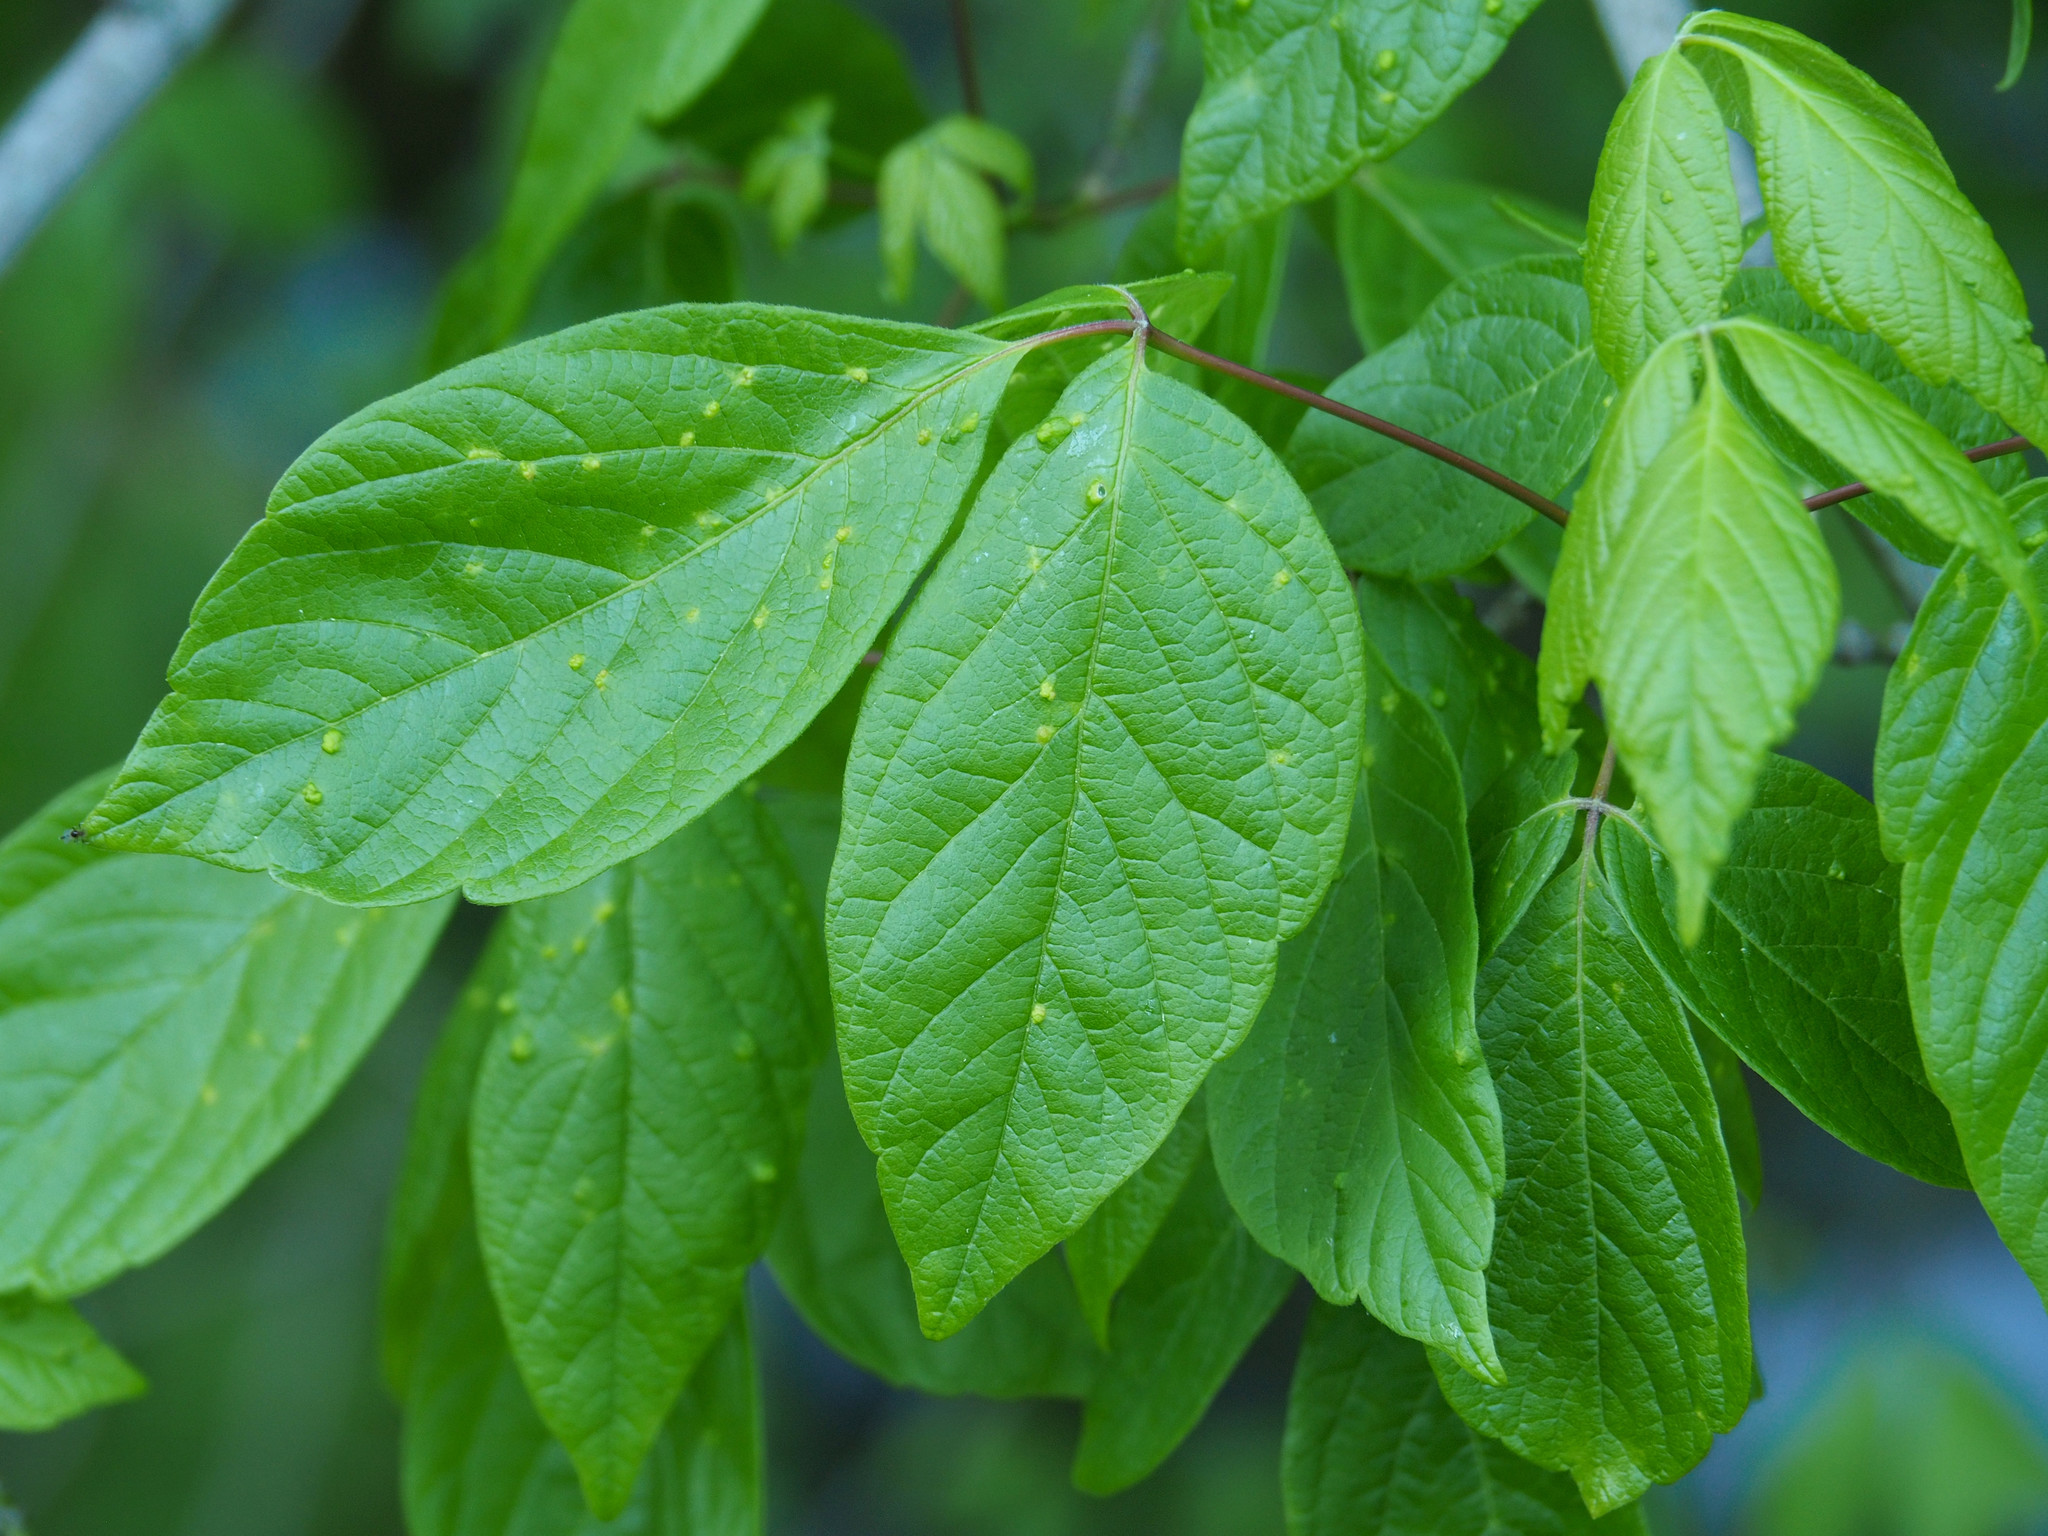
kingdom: Animalia
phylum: Arthropoda
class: Arachnida
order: Trombidiformes
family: Eriophyidae
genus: Aceria
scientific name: Aceria
